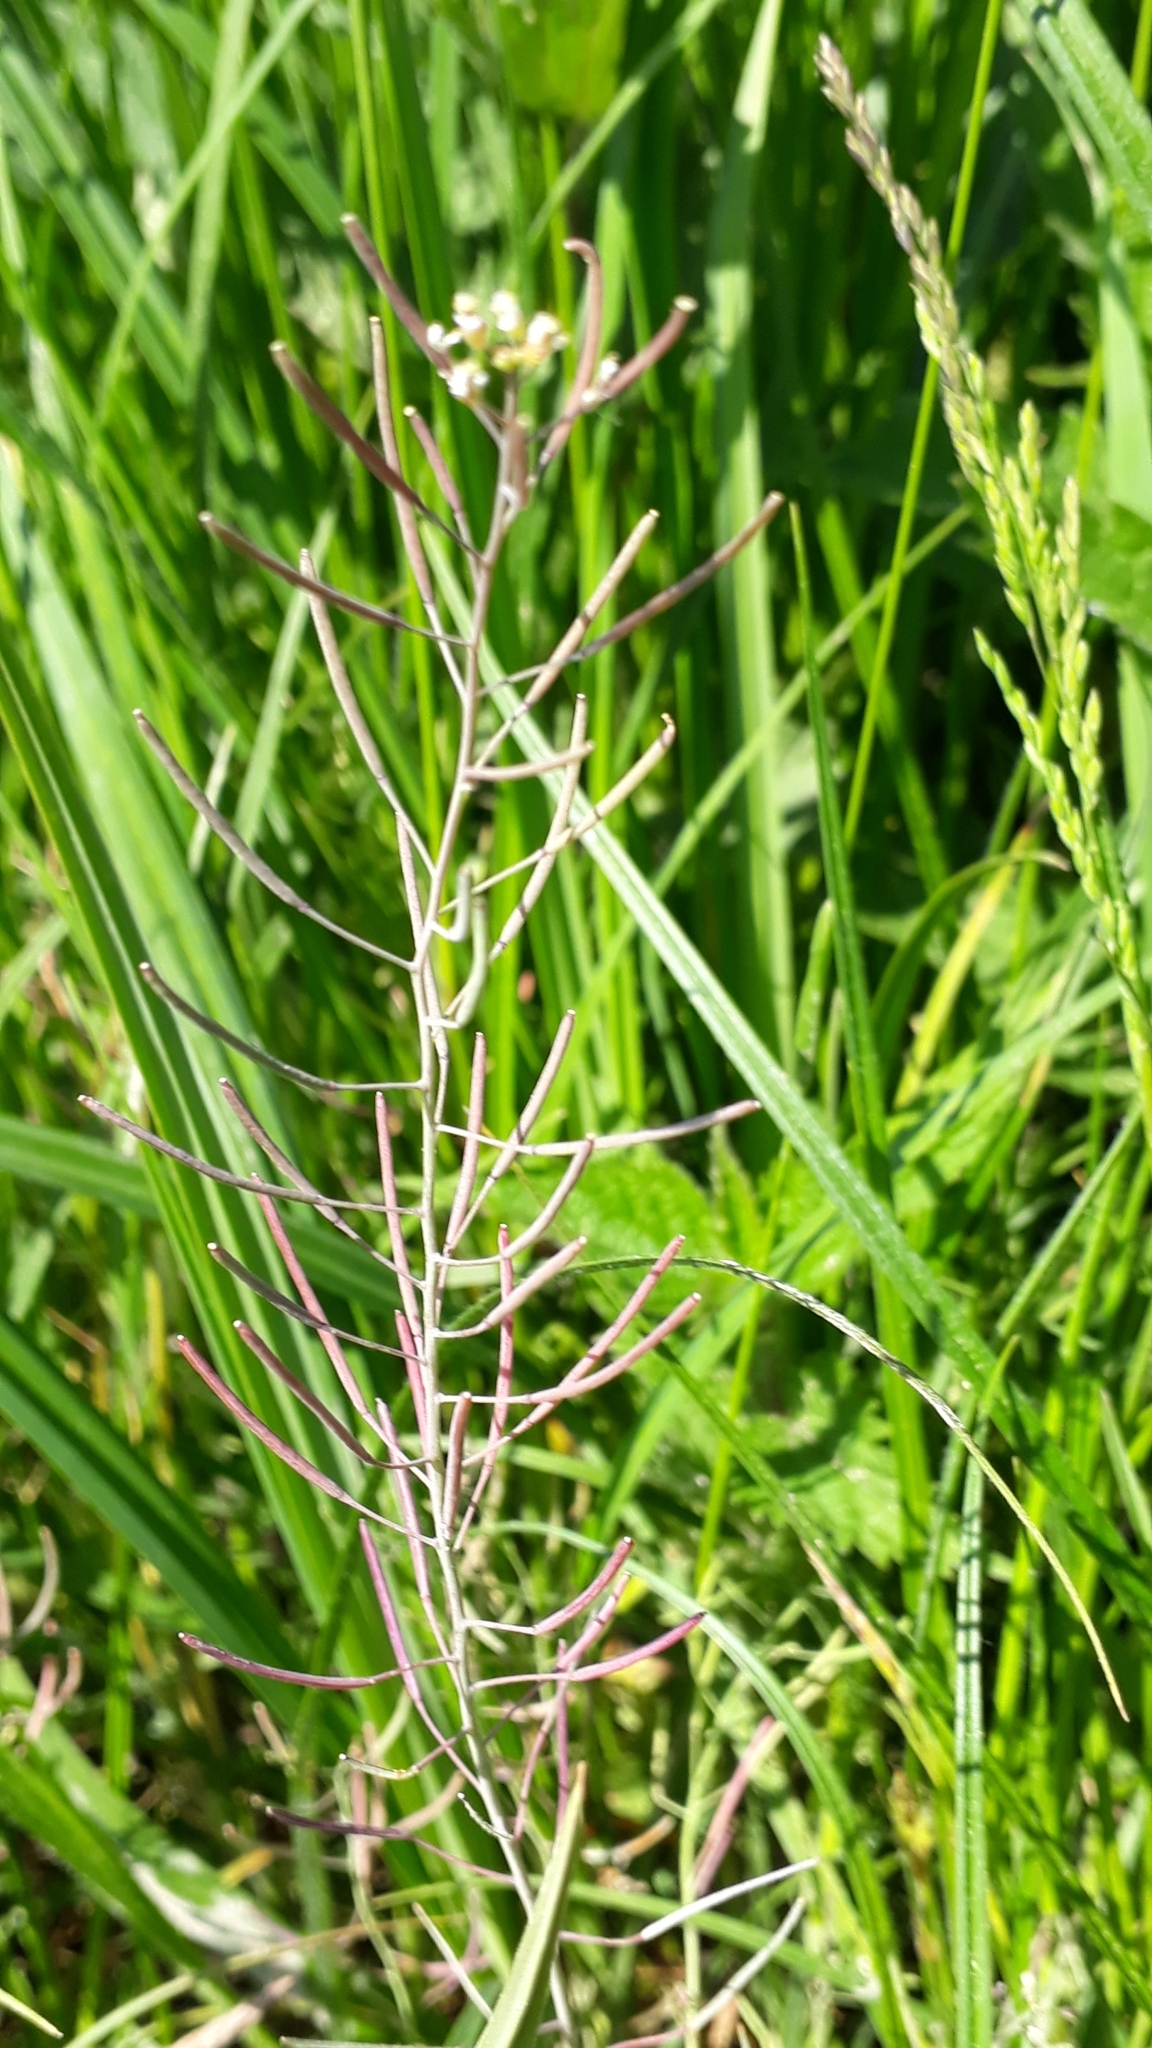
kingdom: Plantae
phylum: Tracheophyta
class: Magnoliopsida
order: Brassicales
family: Brassicaceae
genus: Arabidopsis
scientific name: Arabidopsis thaliana
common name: Thale cress
